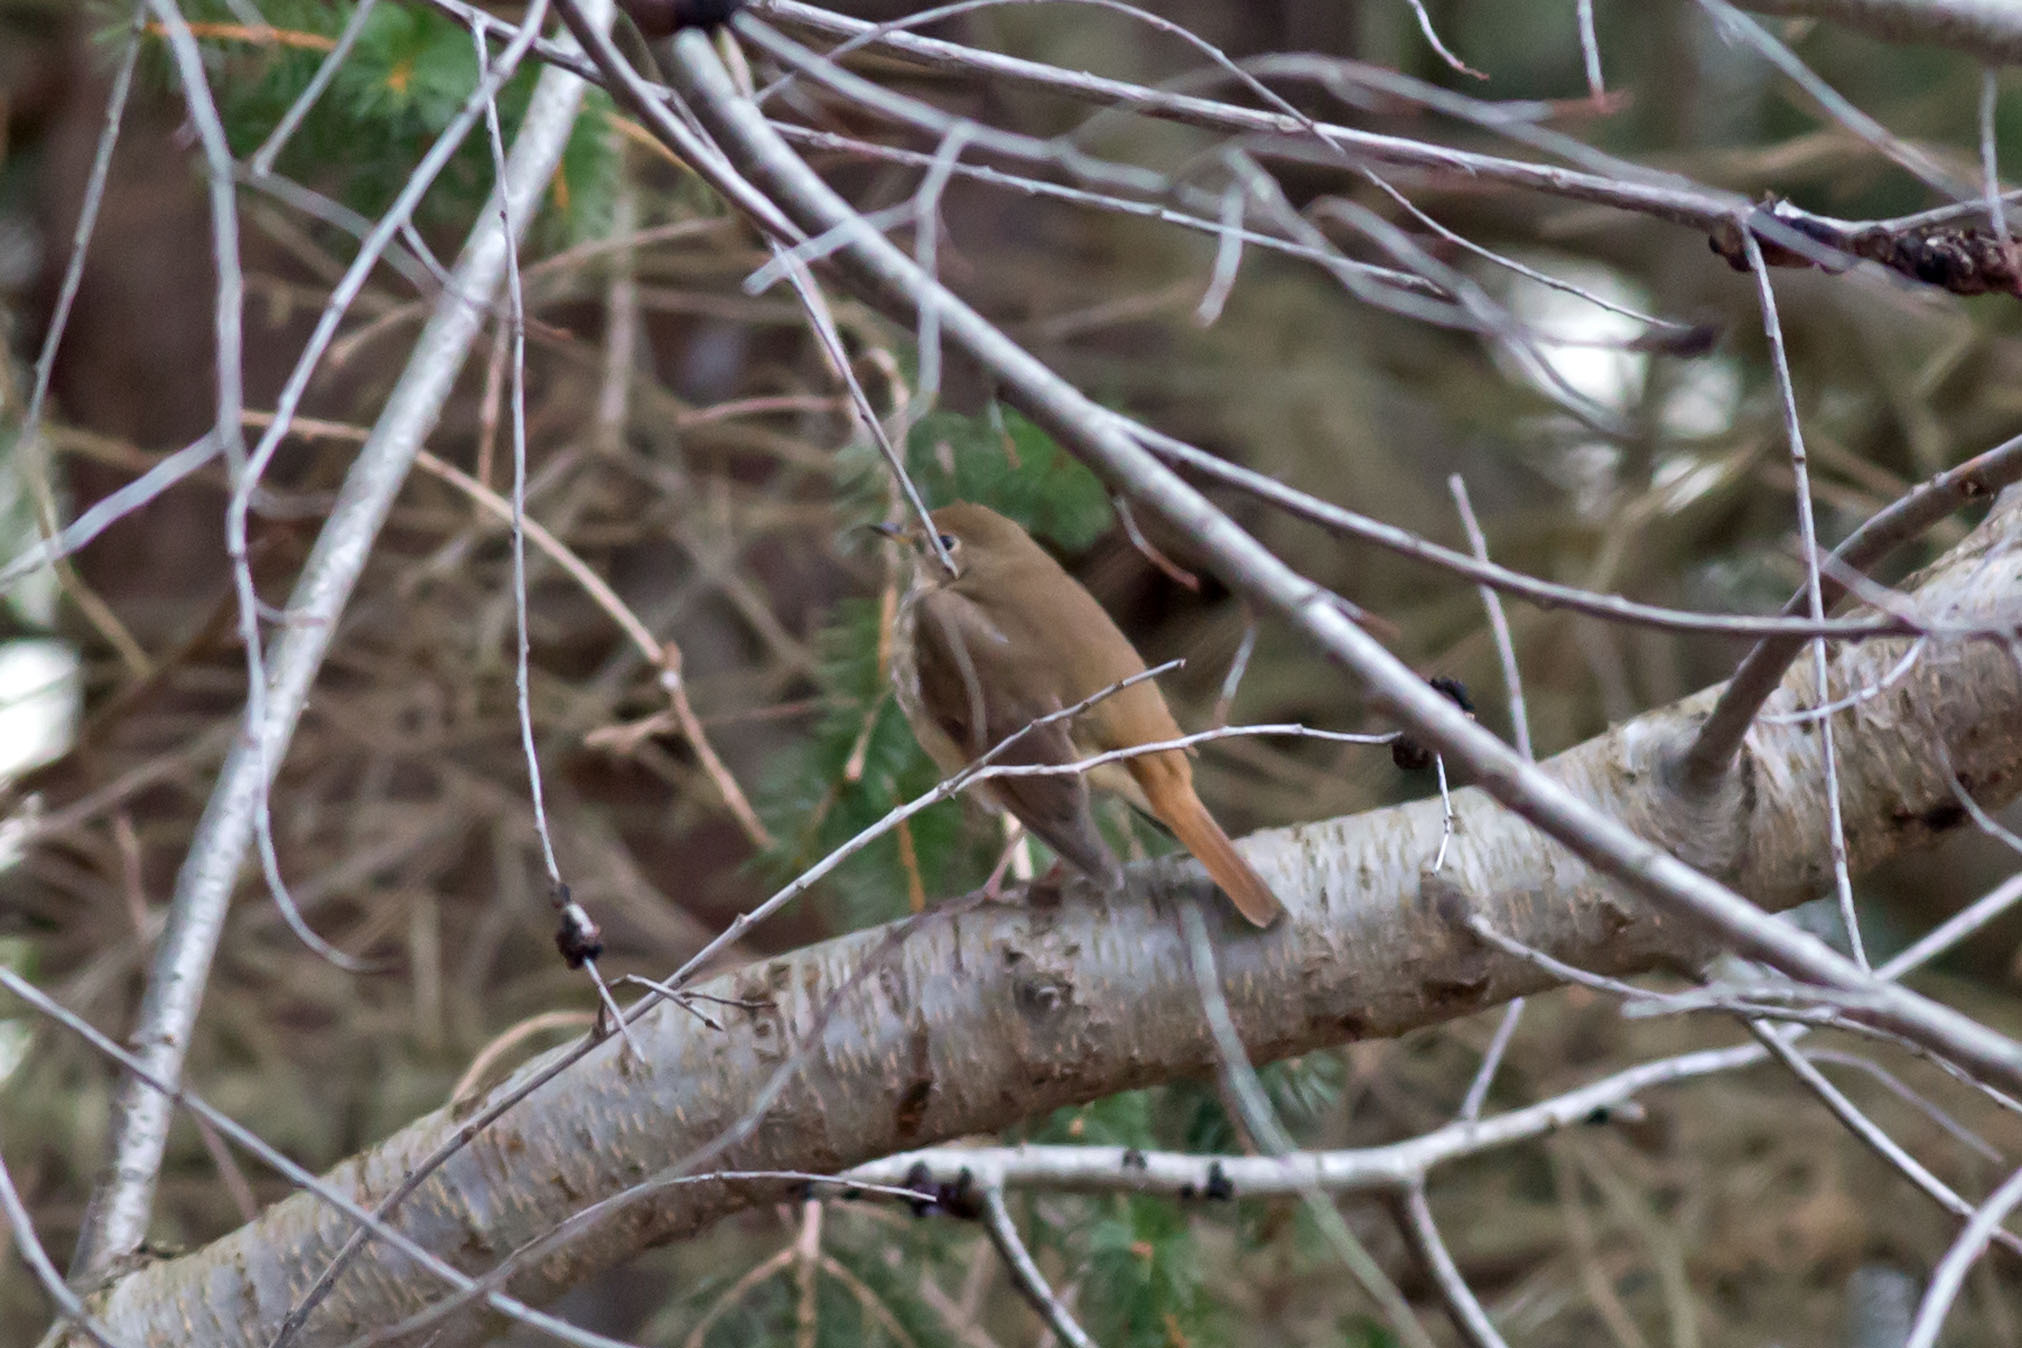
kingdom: Animalia
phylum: Chordata
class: Aves
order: Passeriformes
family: Turdidae
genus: Catharus
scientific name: Catharus guttatus
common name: Hermit thrush
